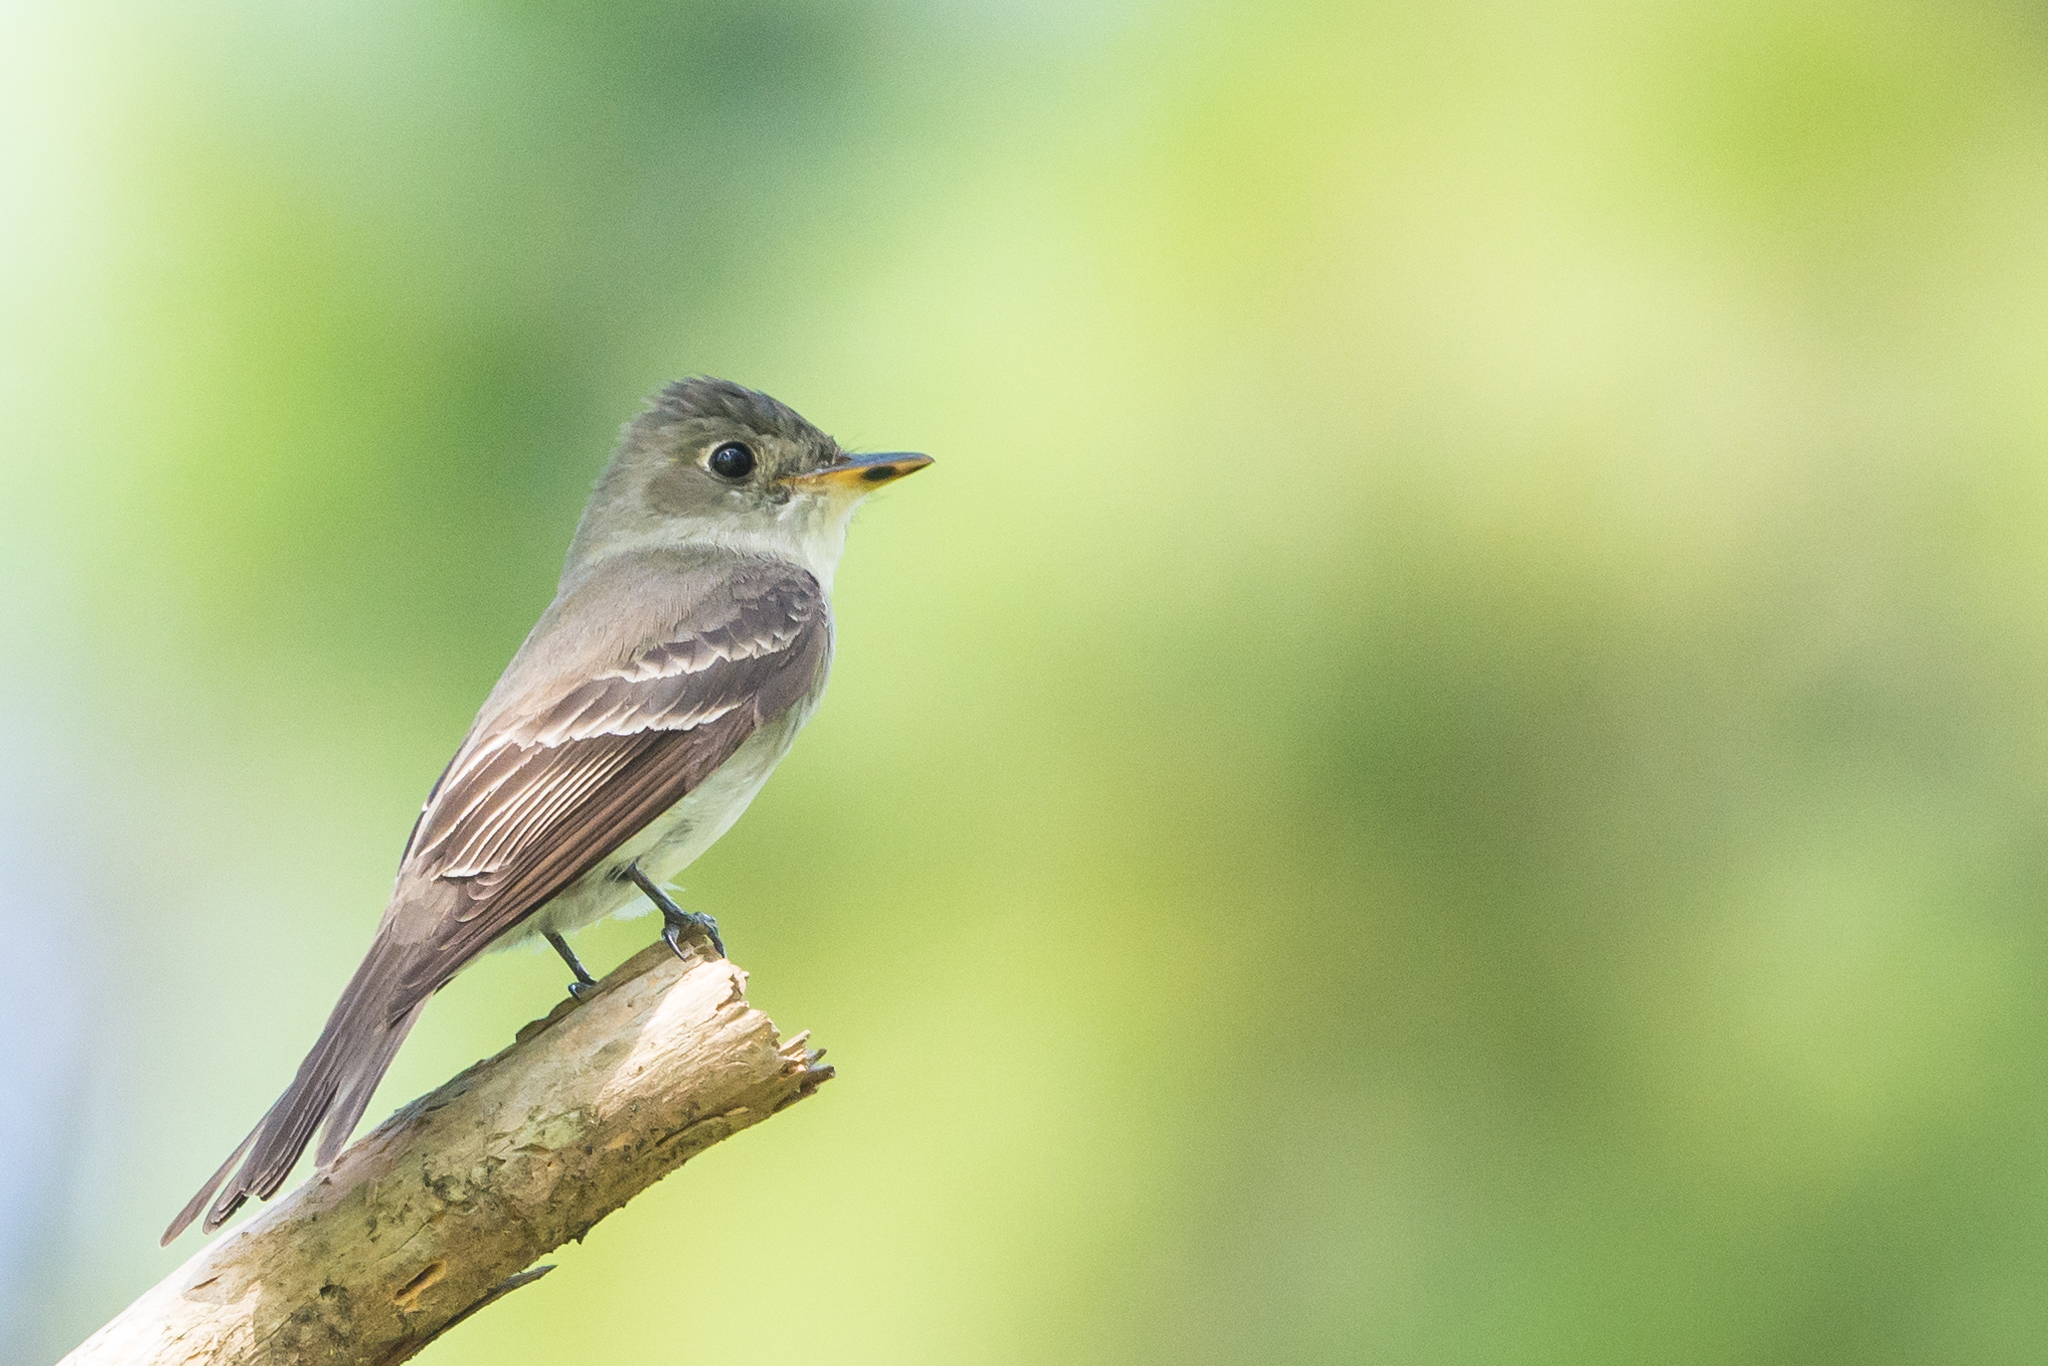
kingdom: Animalia
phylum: Chordata
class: Aves
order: Passeriformes
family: Tyrannidae
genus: Contopus
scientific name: Contopus virens
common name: Eastern wood-pewee
